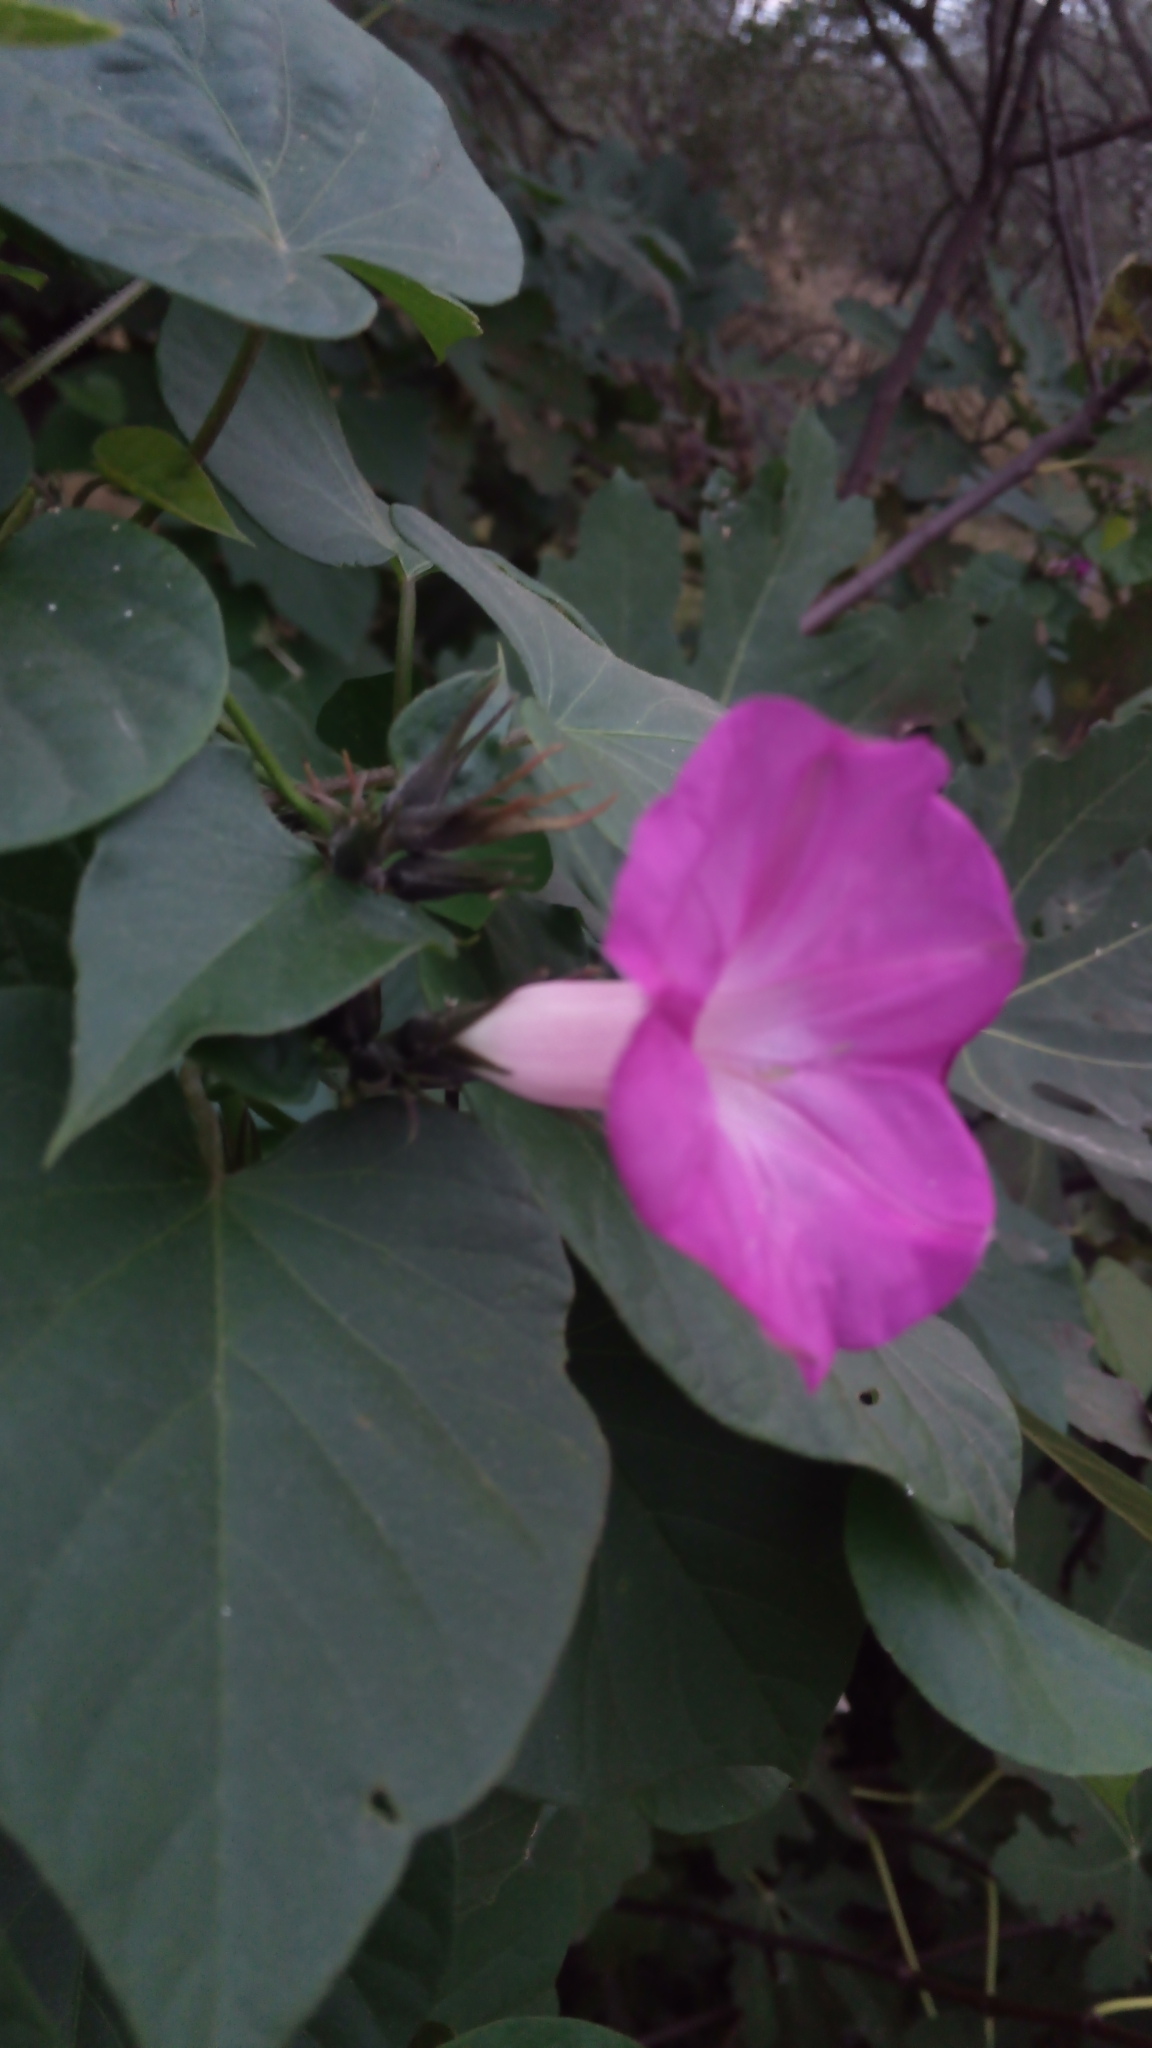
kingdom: Plantae
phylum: Tracheophyta
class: Magnoliopsida
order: Solanales
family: Convolvulaceae
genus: Ipomoea
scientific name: Ipomoea indica
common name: Blue dawnflower
